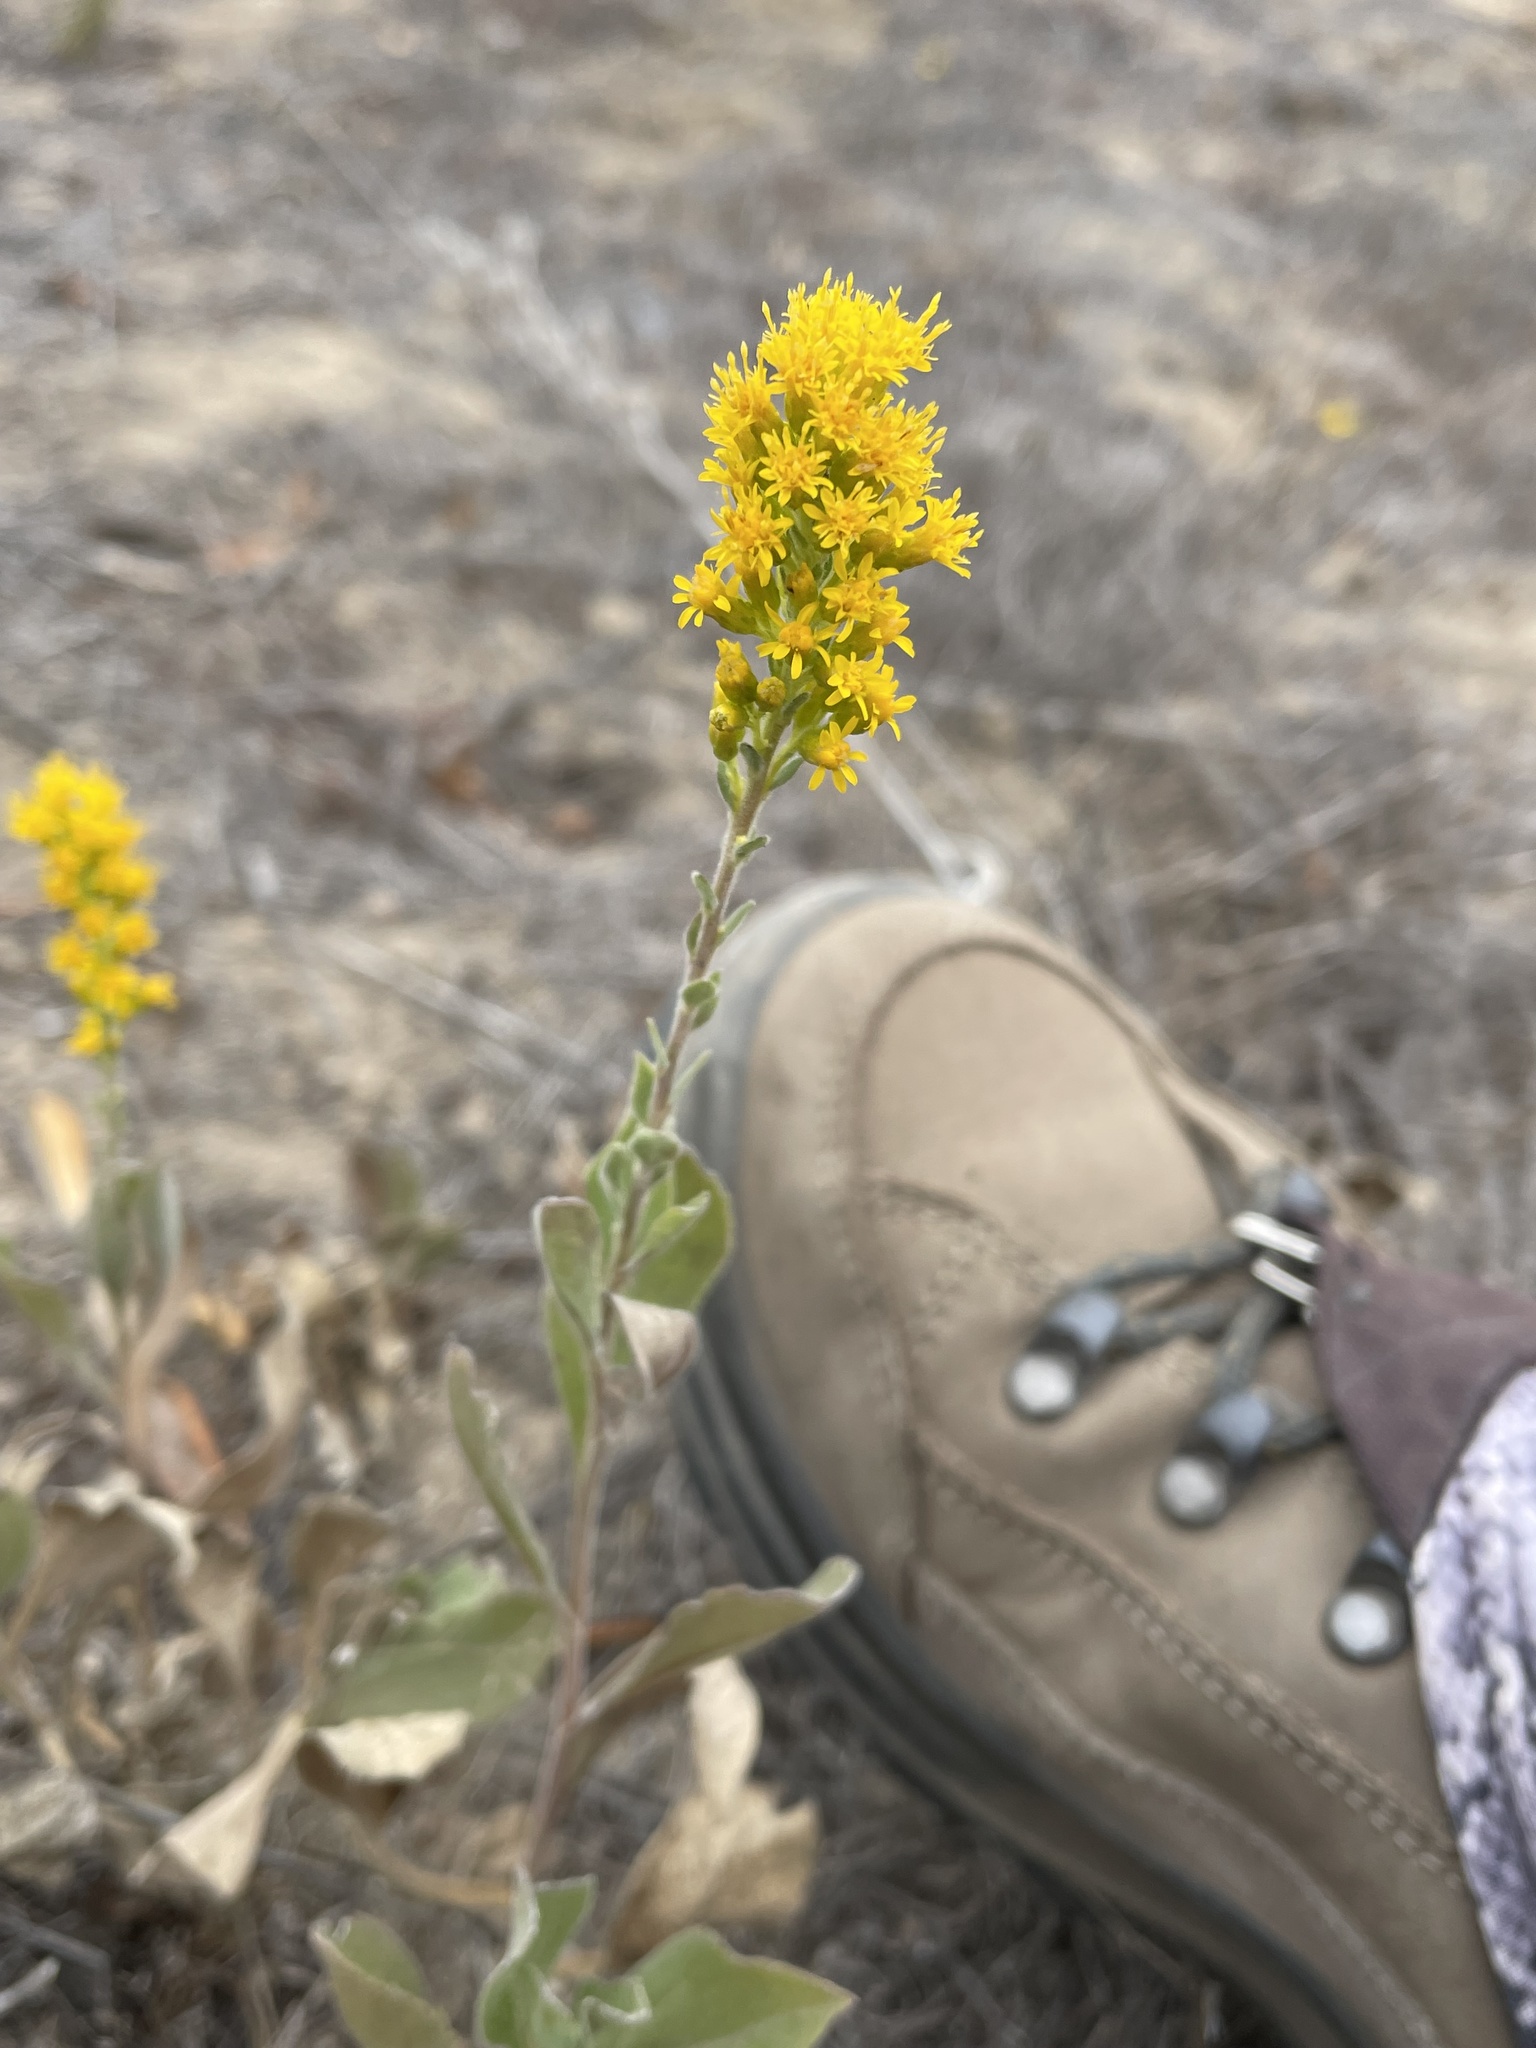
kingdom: Plantae
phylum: Tracheophyta
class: Magnoliopsida
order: Asterales
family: Asteraceae
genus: Solidago
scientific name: Solidago velutina
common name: Three-nerve goldenrod
